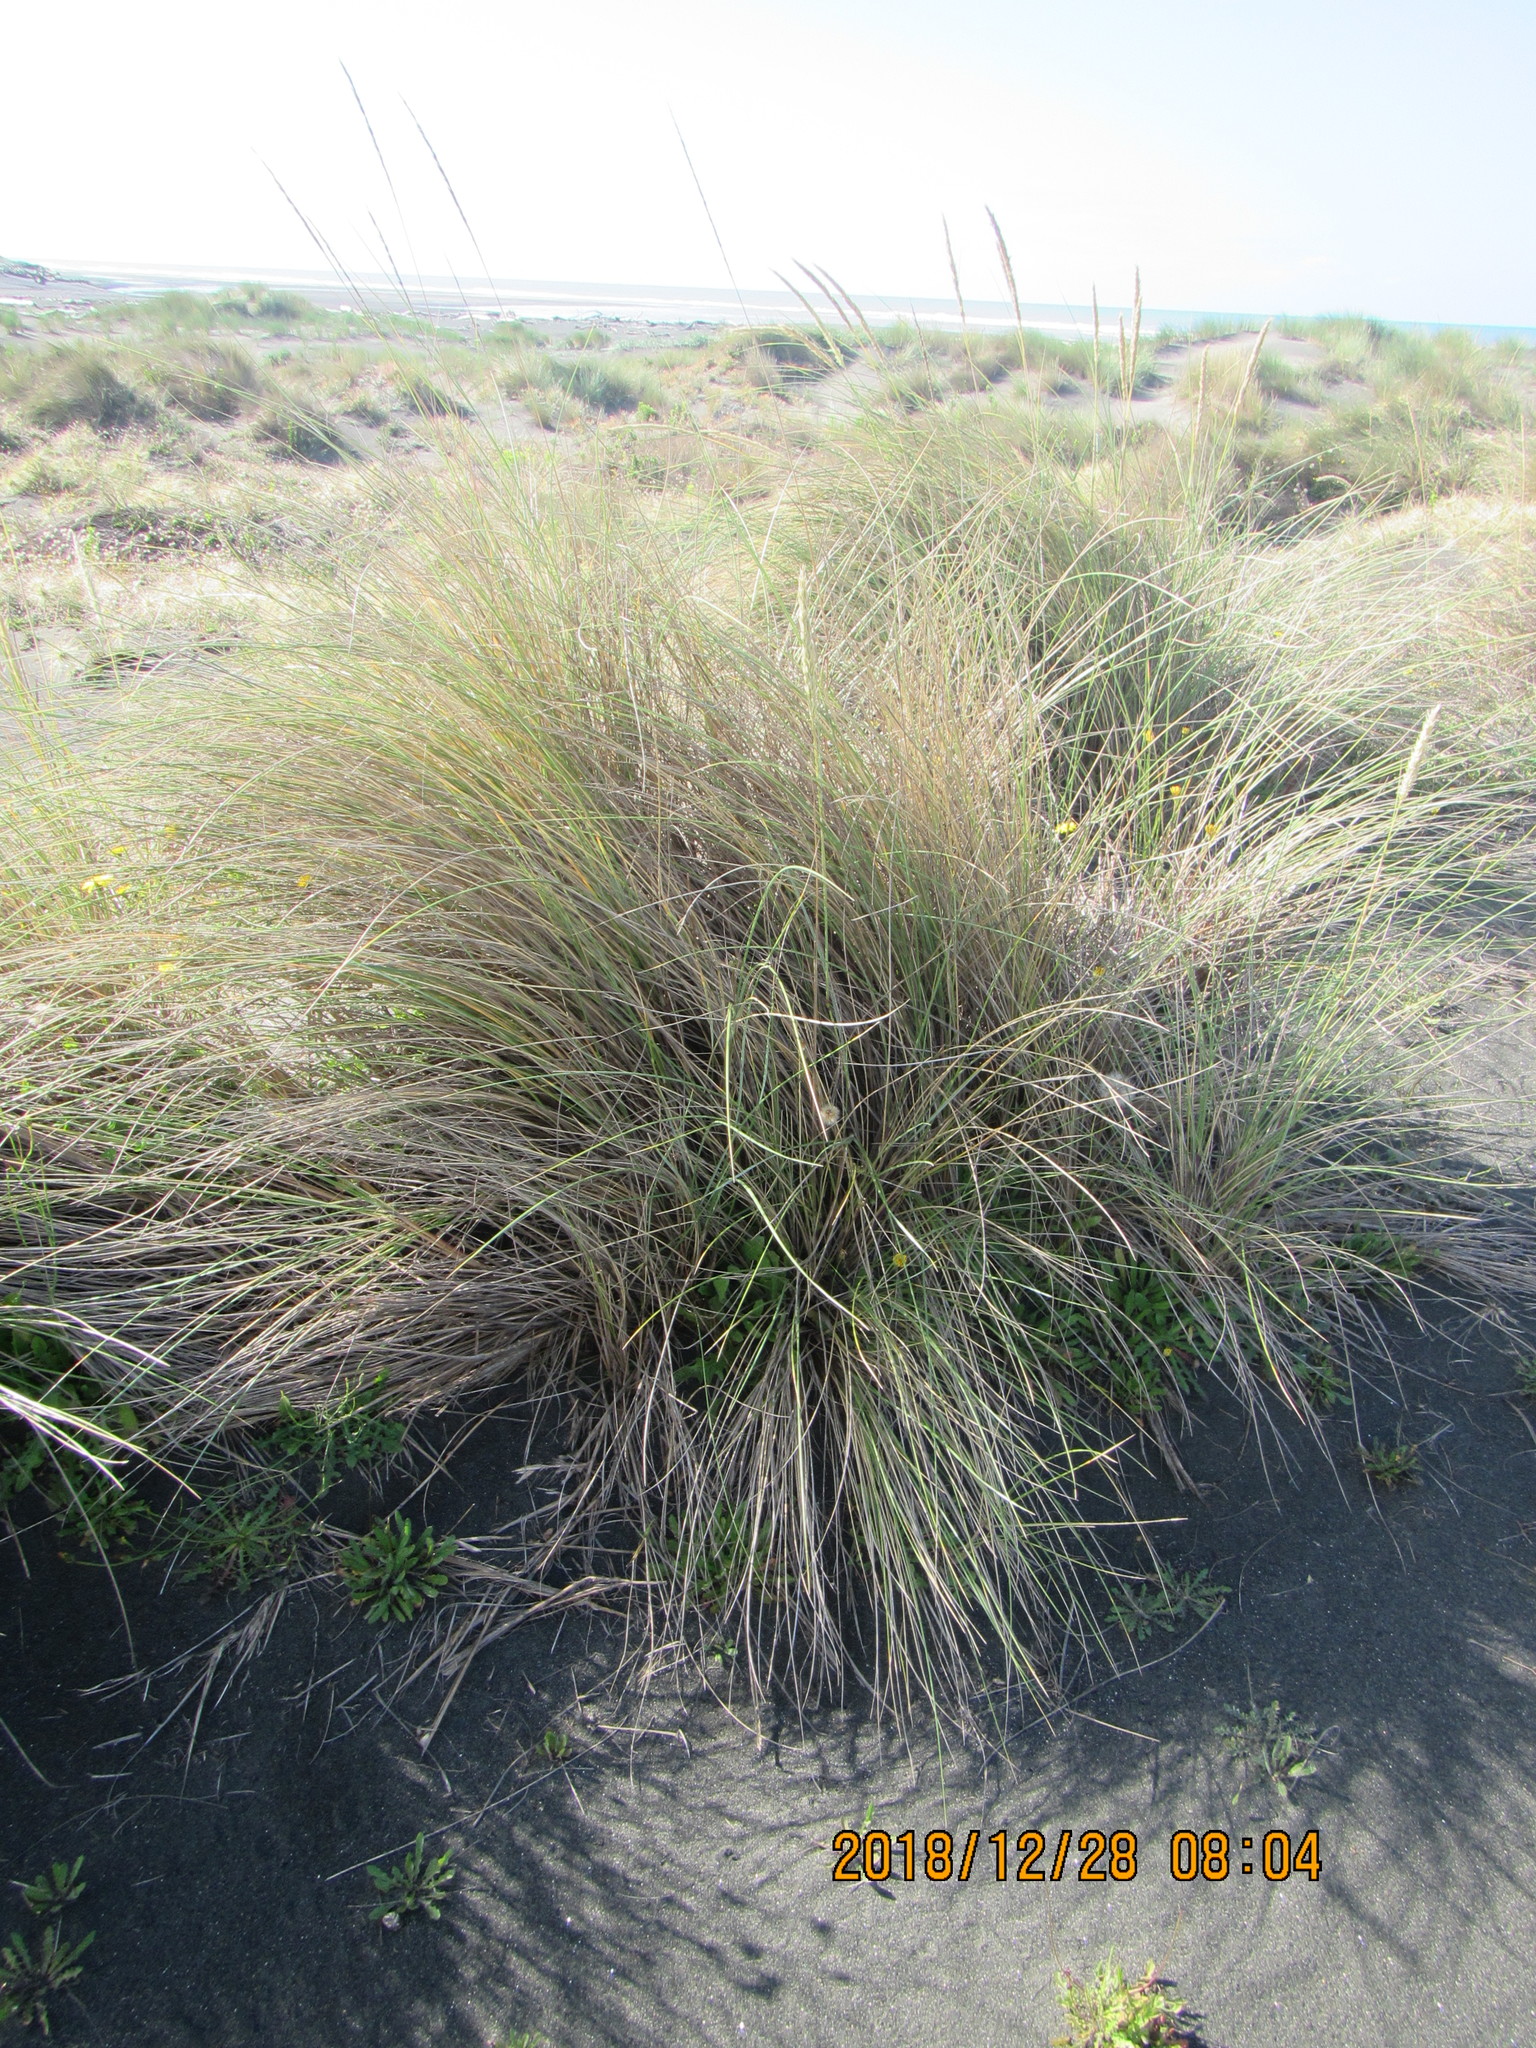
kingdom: Plantae
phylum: Tracheophyta
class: Liliopsida
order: Poales
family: Poaceae
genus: Calamagrostis
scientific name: Calamagrostis arenaria
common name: European beachgrass
